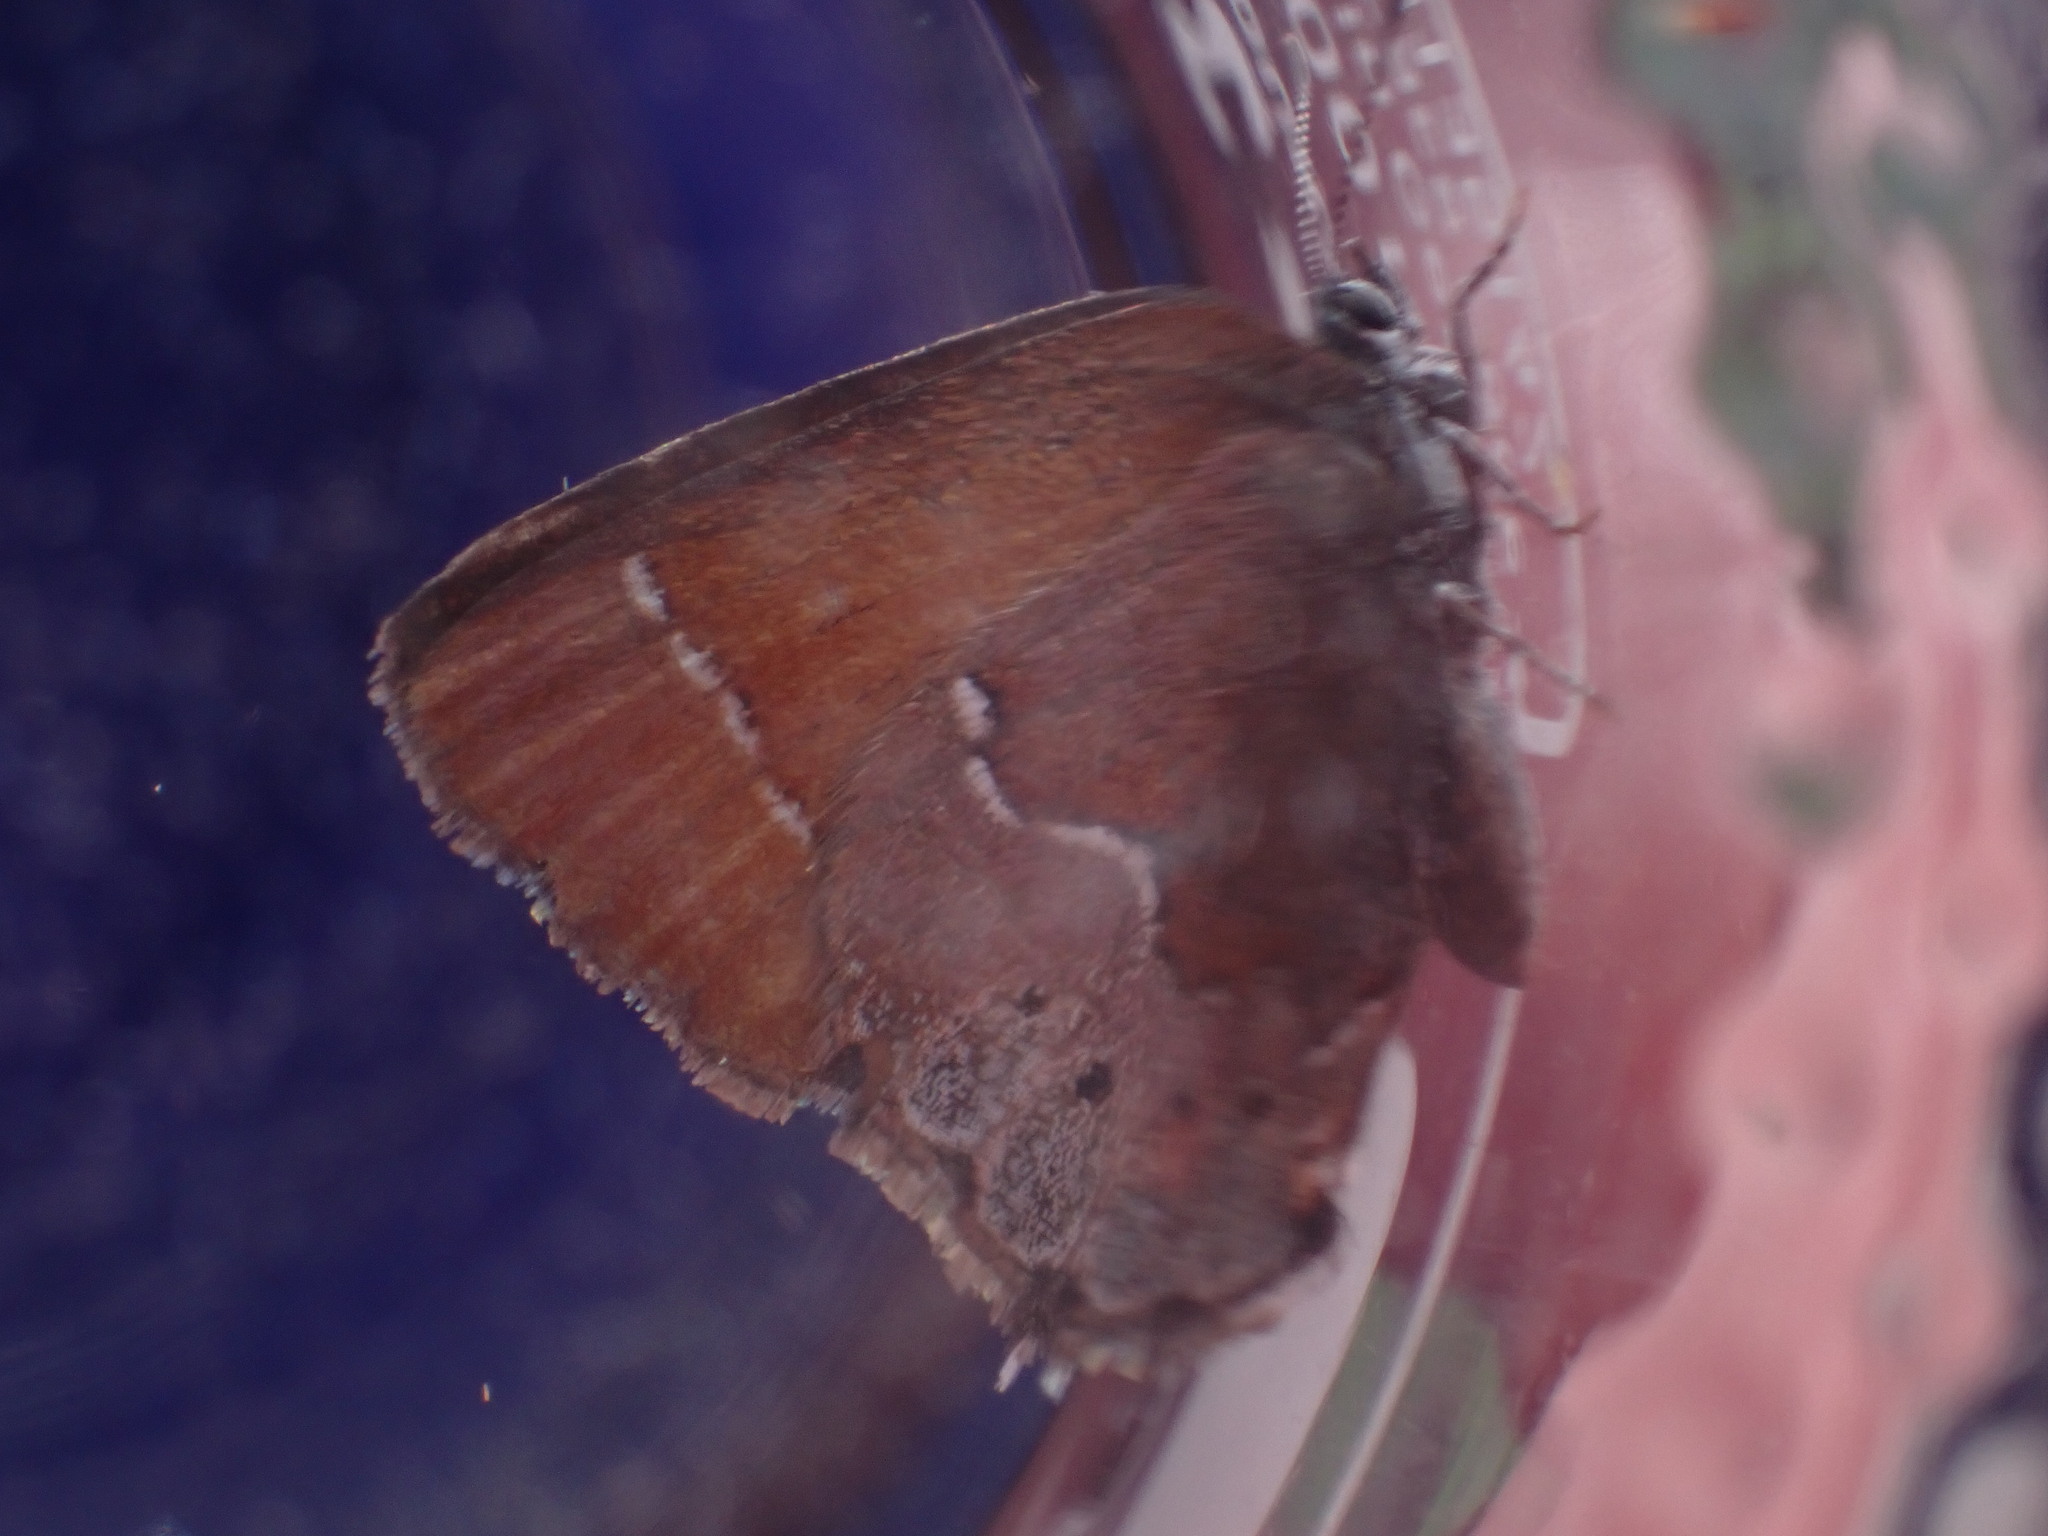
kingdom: Animalia
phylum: Arthropoda
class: Insecta
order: Lepidoptera
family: Lycaenidae
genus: Mitoura
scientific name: Mitoura gryneus
